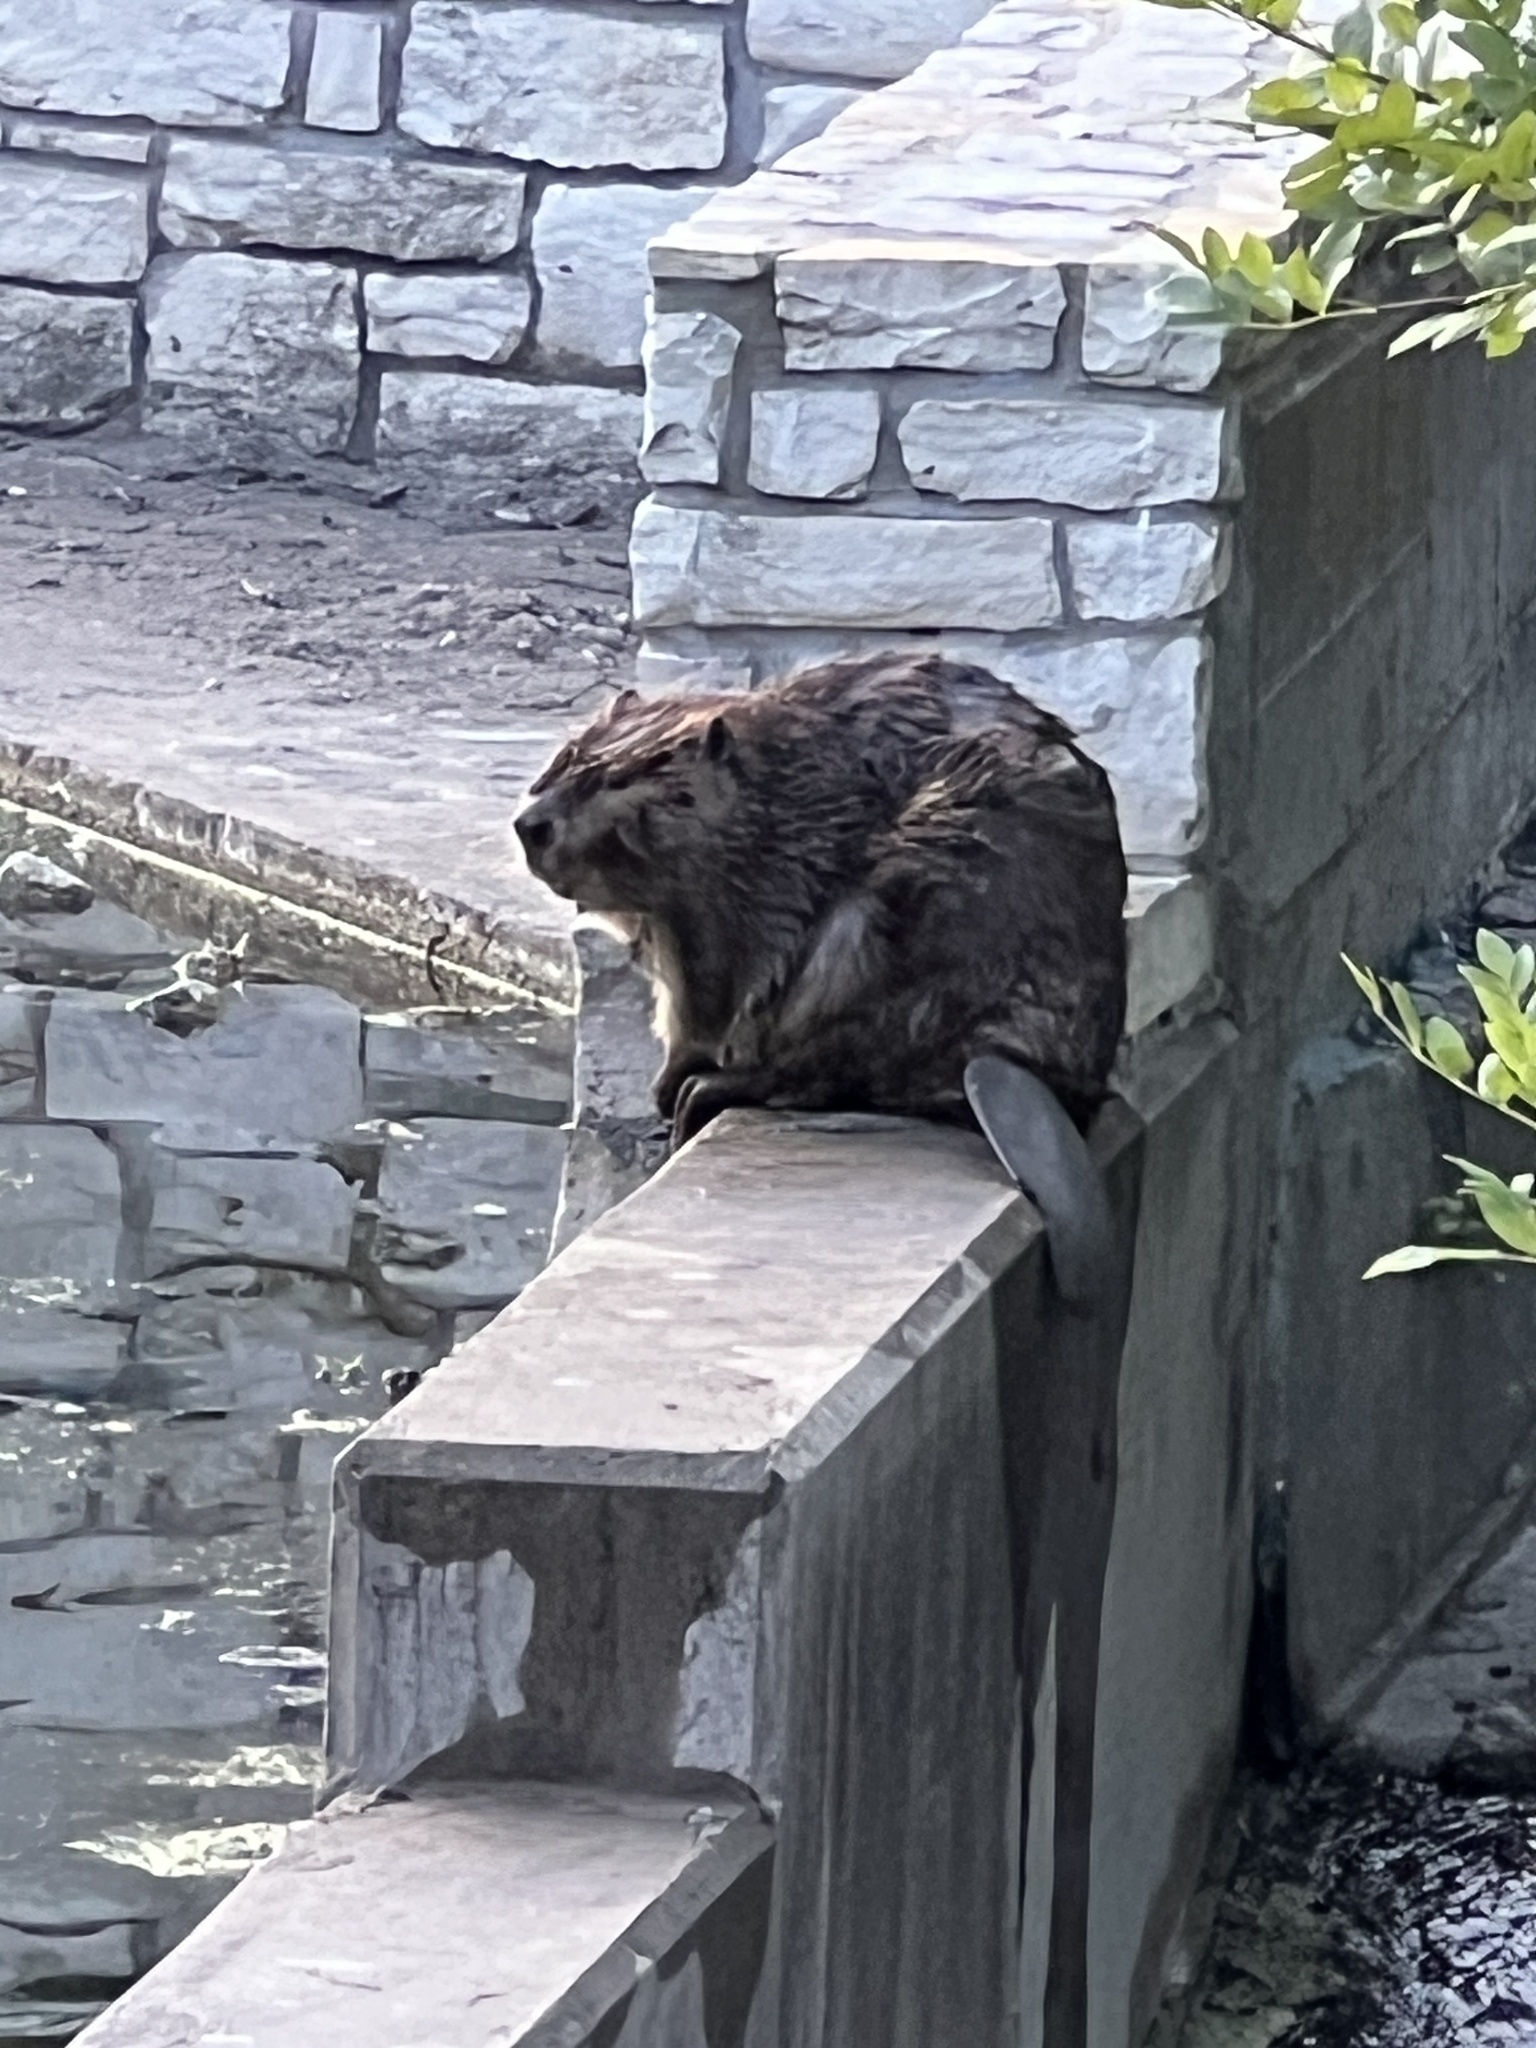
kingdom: Animalia
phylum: Chordata
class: Mammalia
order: Rodentia
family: Castoridae
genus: Castor
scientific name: Castor canadensis
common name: American beaver
